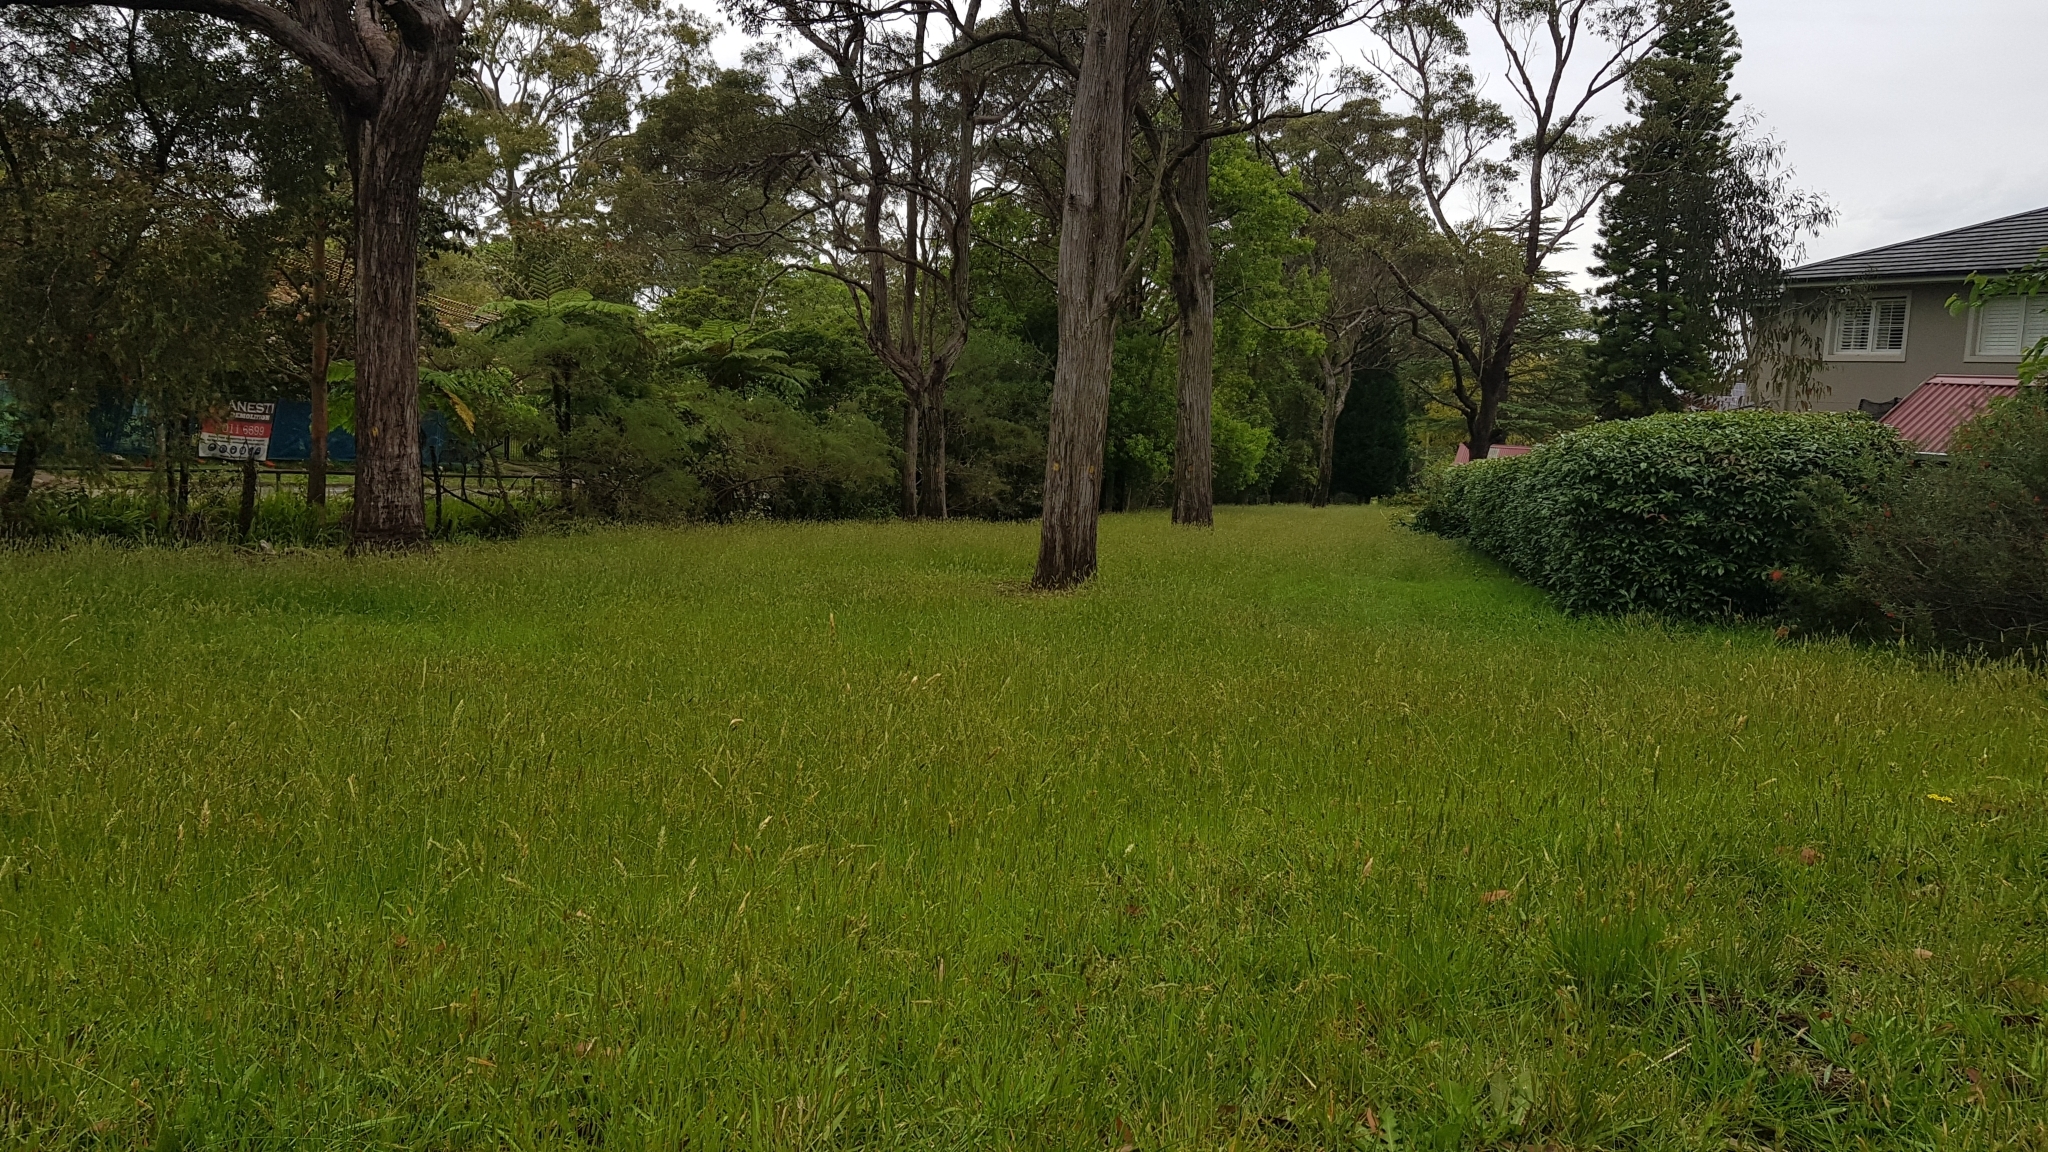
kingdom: Plantae
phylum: Tracheophyta
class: Liliopsida
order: Poales
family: Poaceae
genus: Anthoxanthum
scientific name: Anthoxanthum odoratum
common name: Sweet vernalgrass
